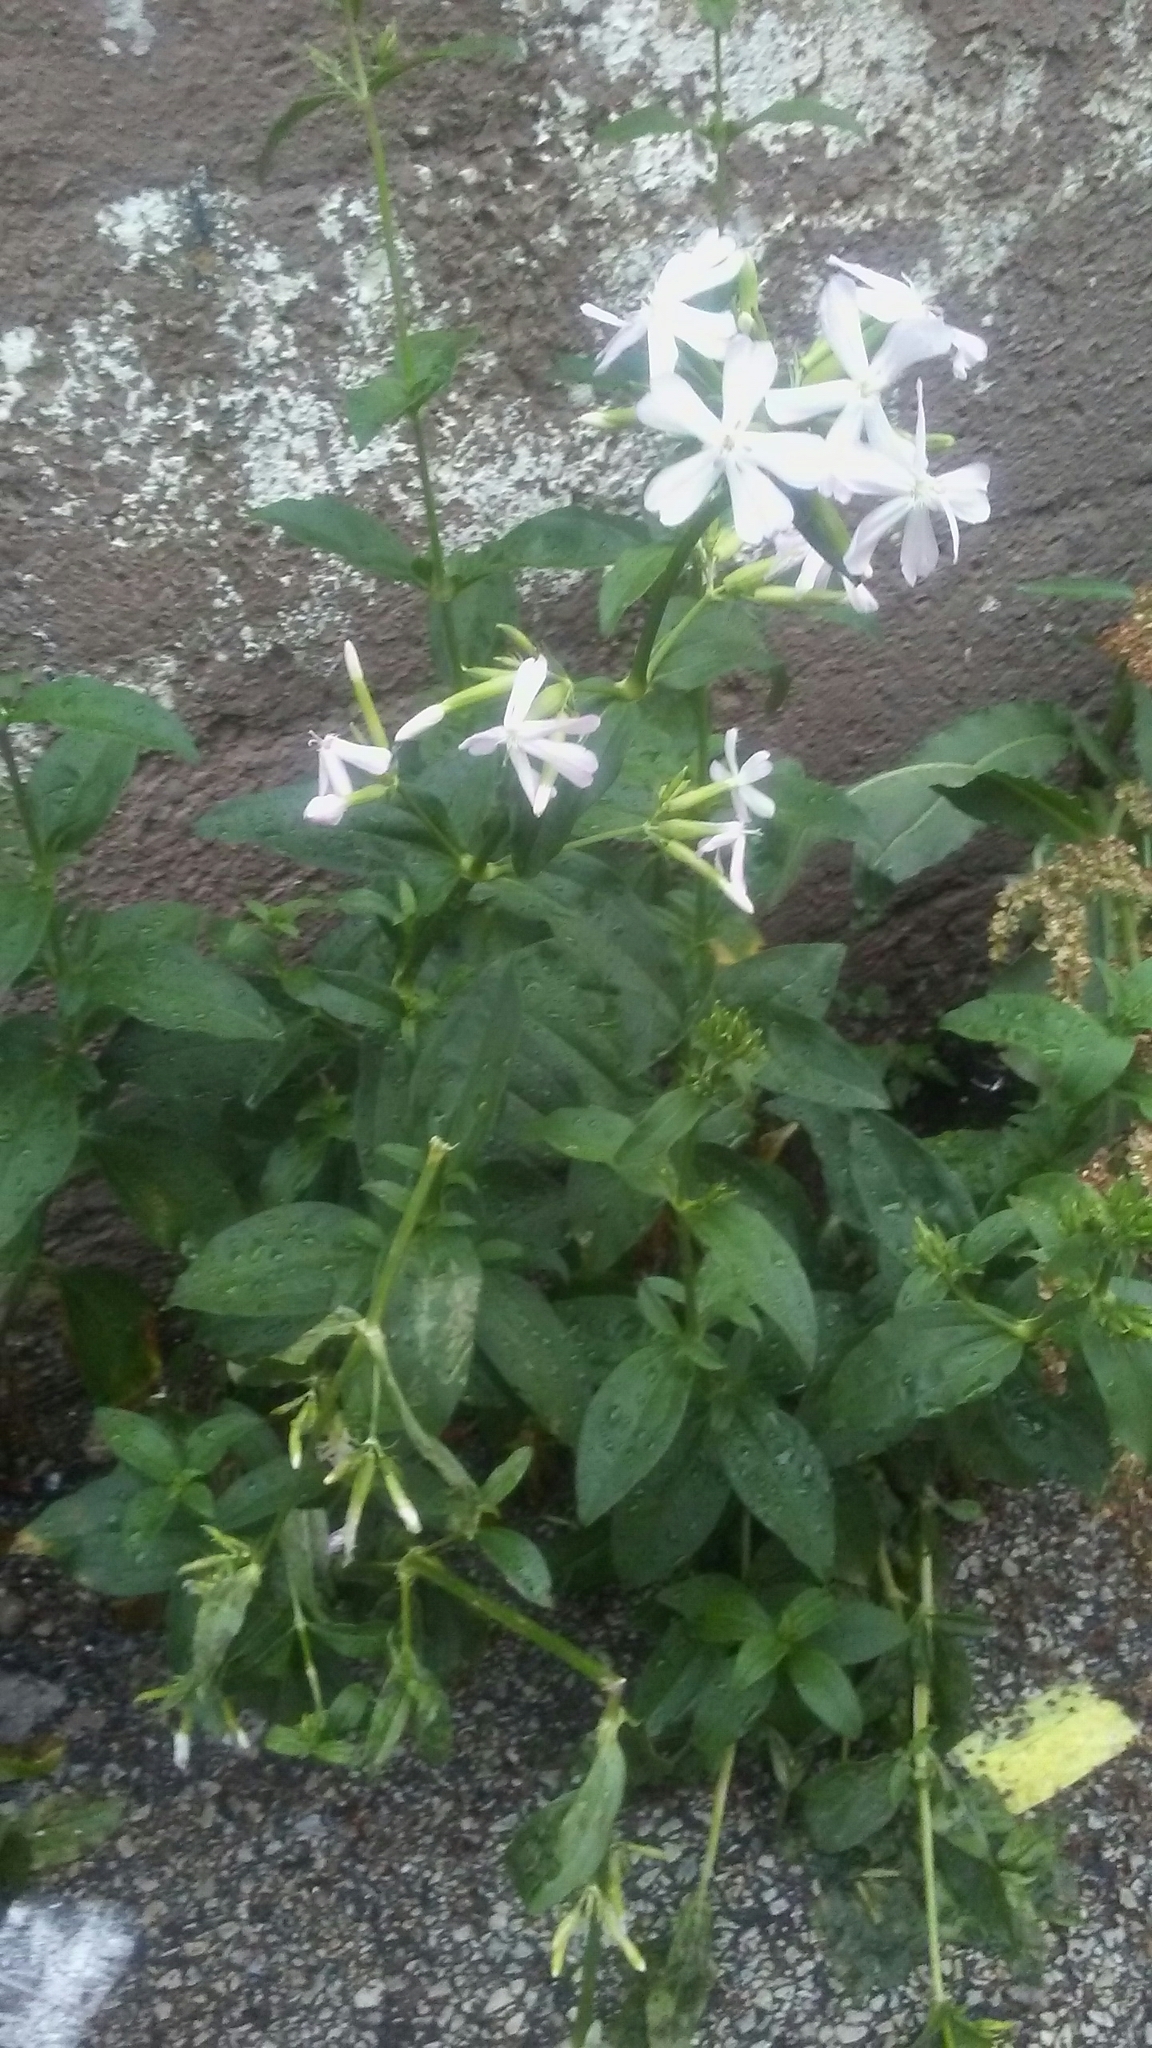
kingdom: Plantae
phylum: Tracheophyta
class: Magnoliopsida
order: Caryophyllales
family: Caryophyllaceae
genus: Saponaria
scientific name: Saponaria officinalis
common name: Soapwort
